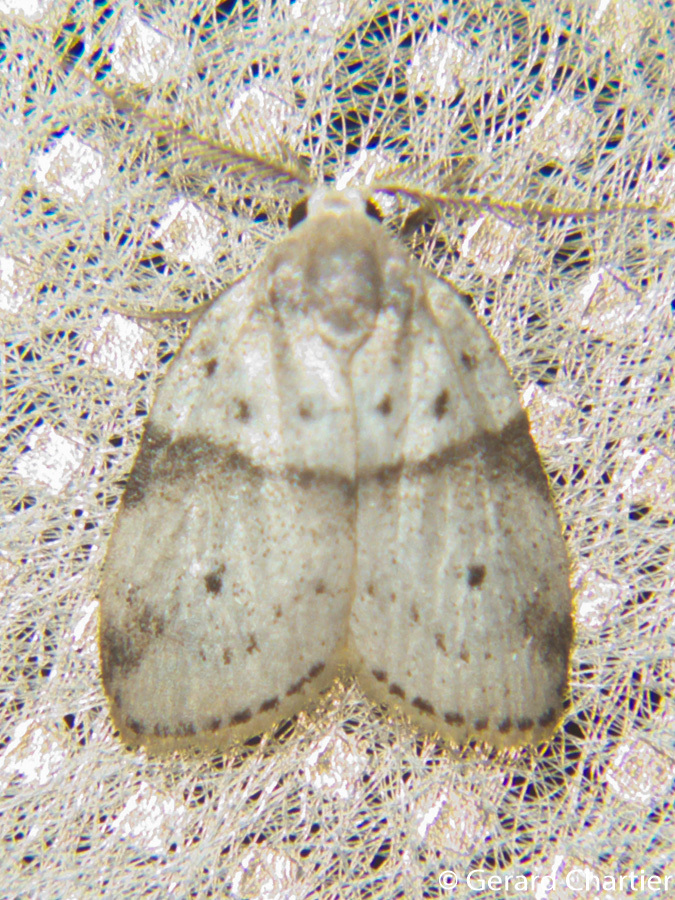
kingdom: Animalia
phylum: Arthropoda
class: Insecta
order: Lepidoptera
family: Erebidae
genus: Stictane
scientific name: Stictane pectenicorniculum
